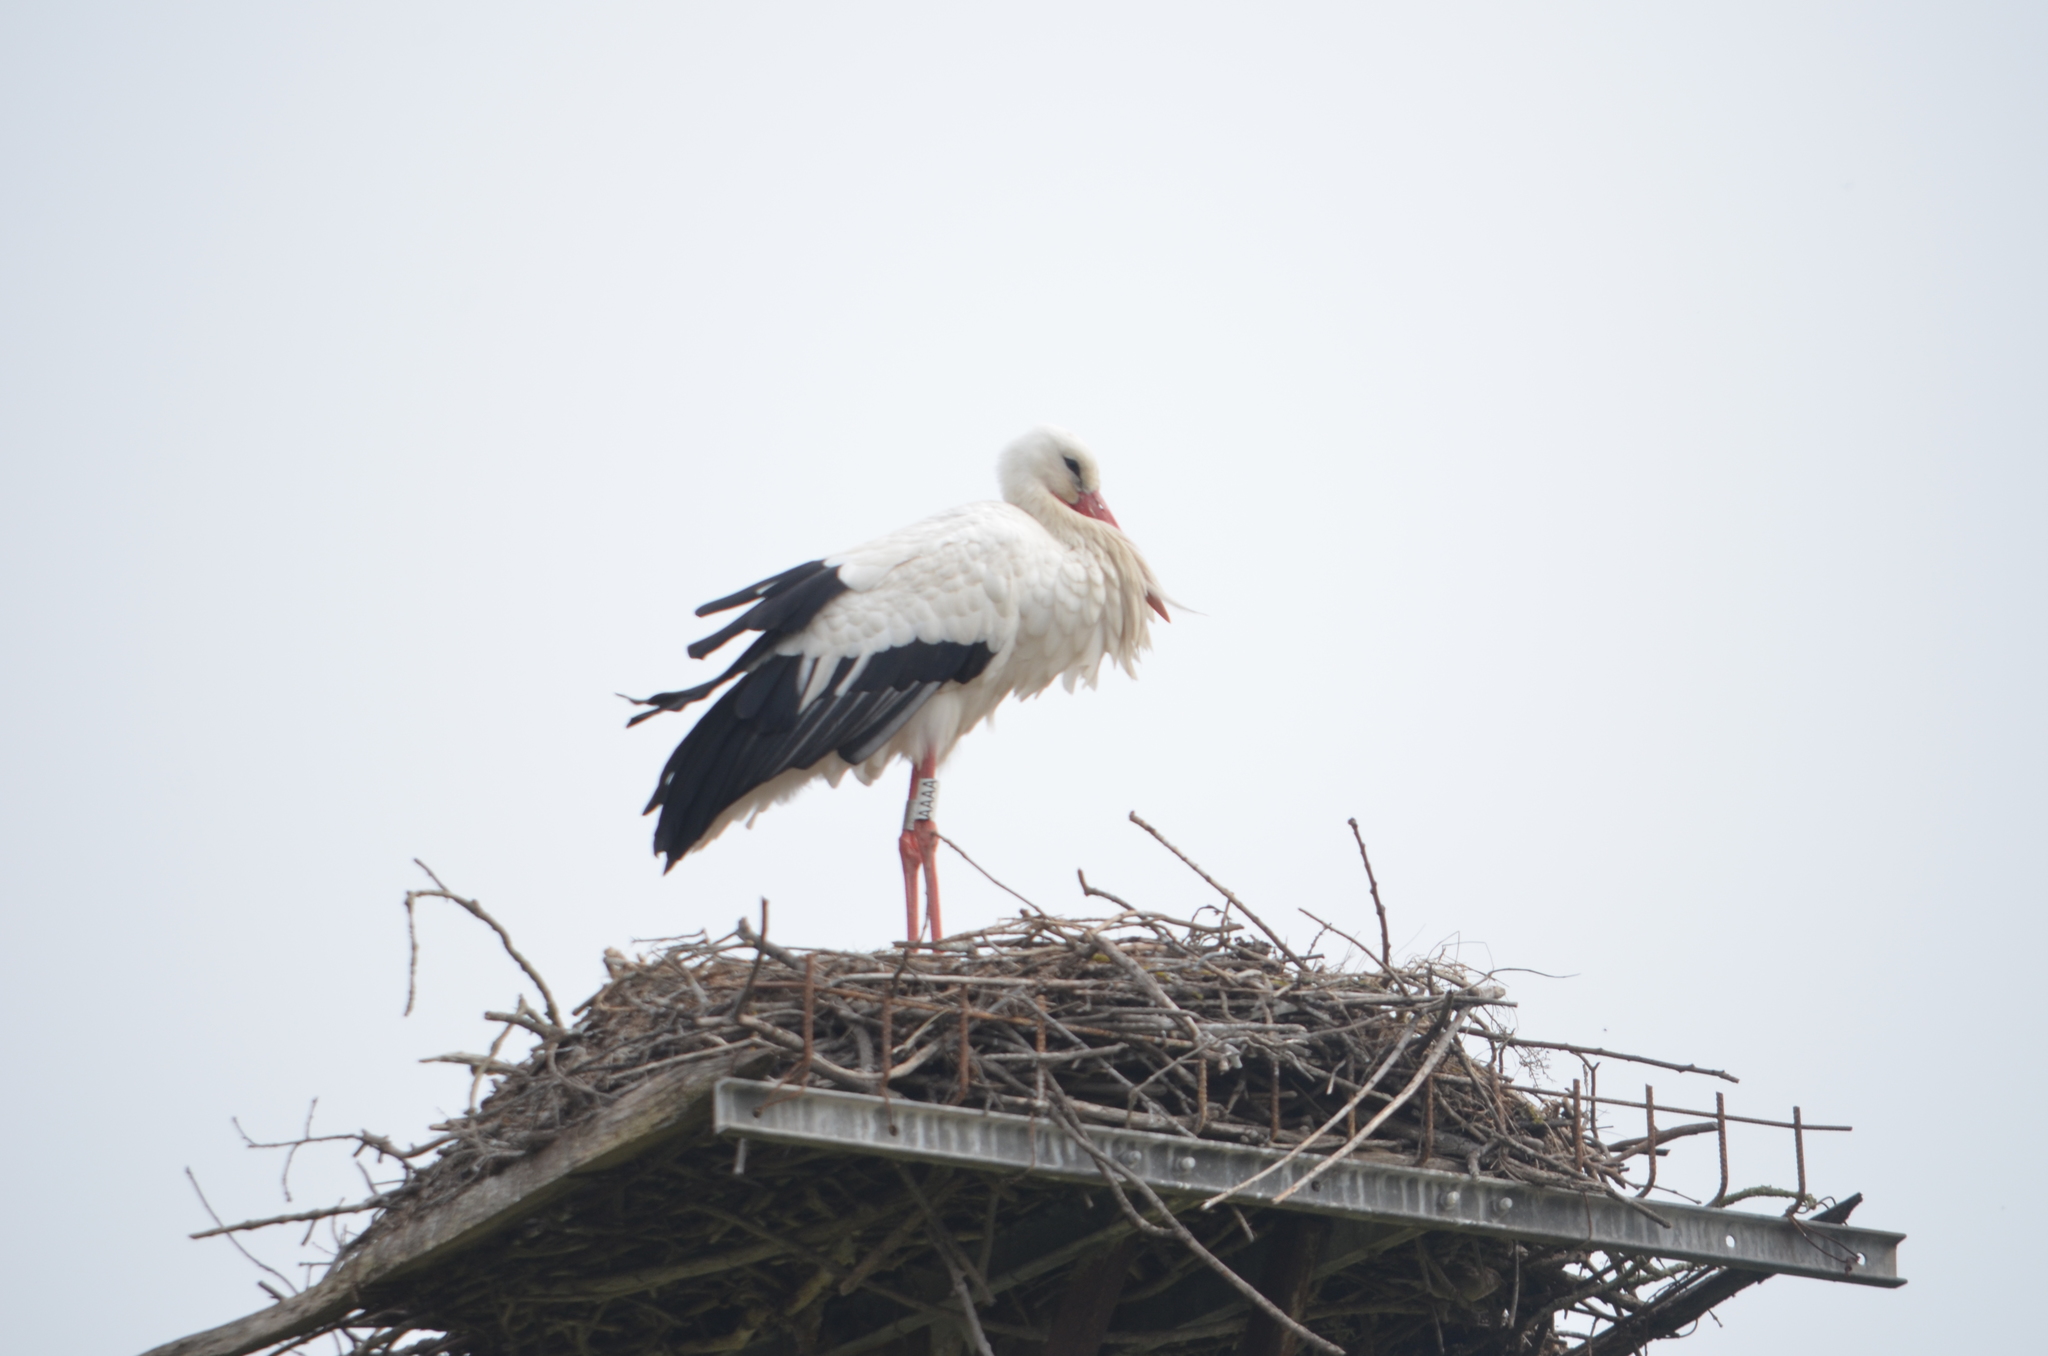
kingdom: Animalia
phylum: Chordata
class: Aves
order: Ciconiiformes
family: Ciconiidae
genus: Ciconia
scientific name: Ciconia ciconia
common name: White stork
